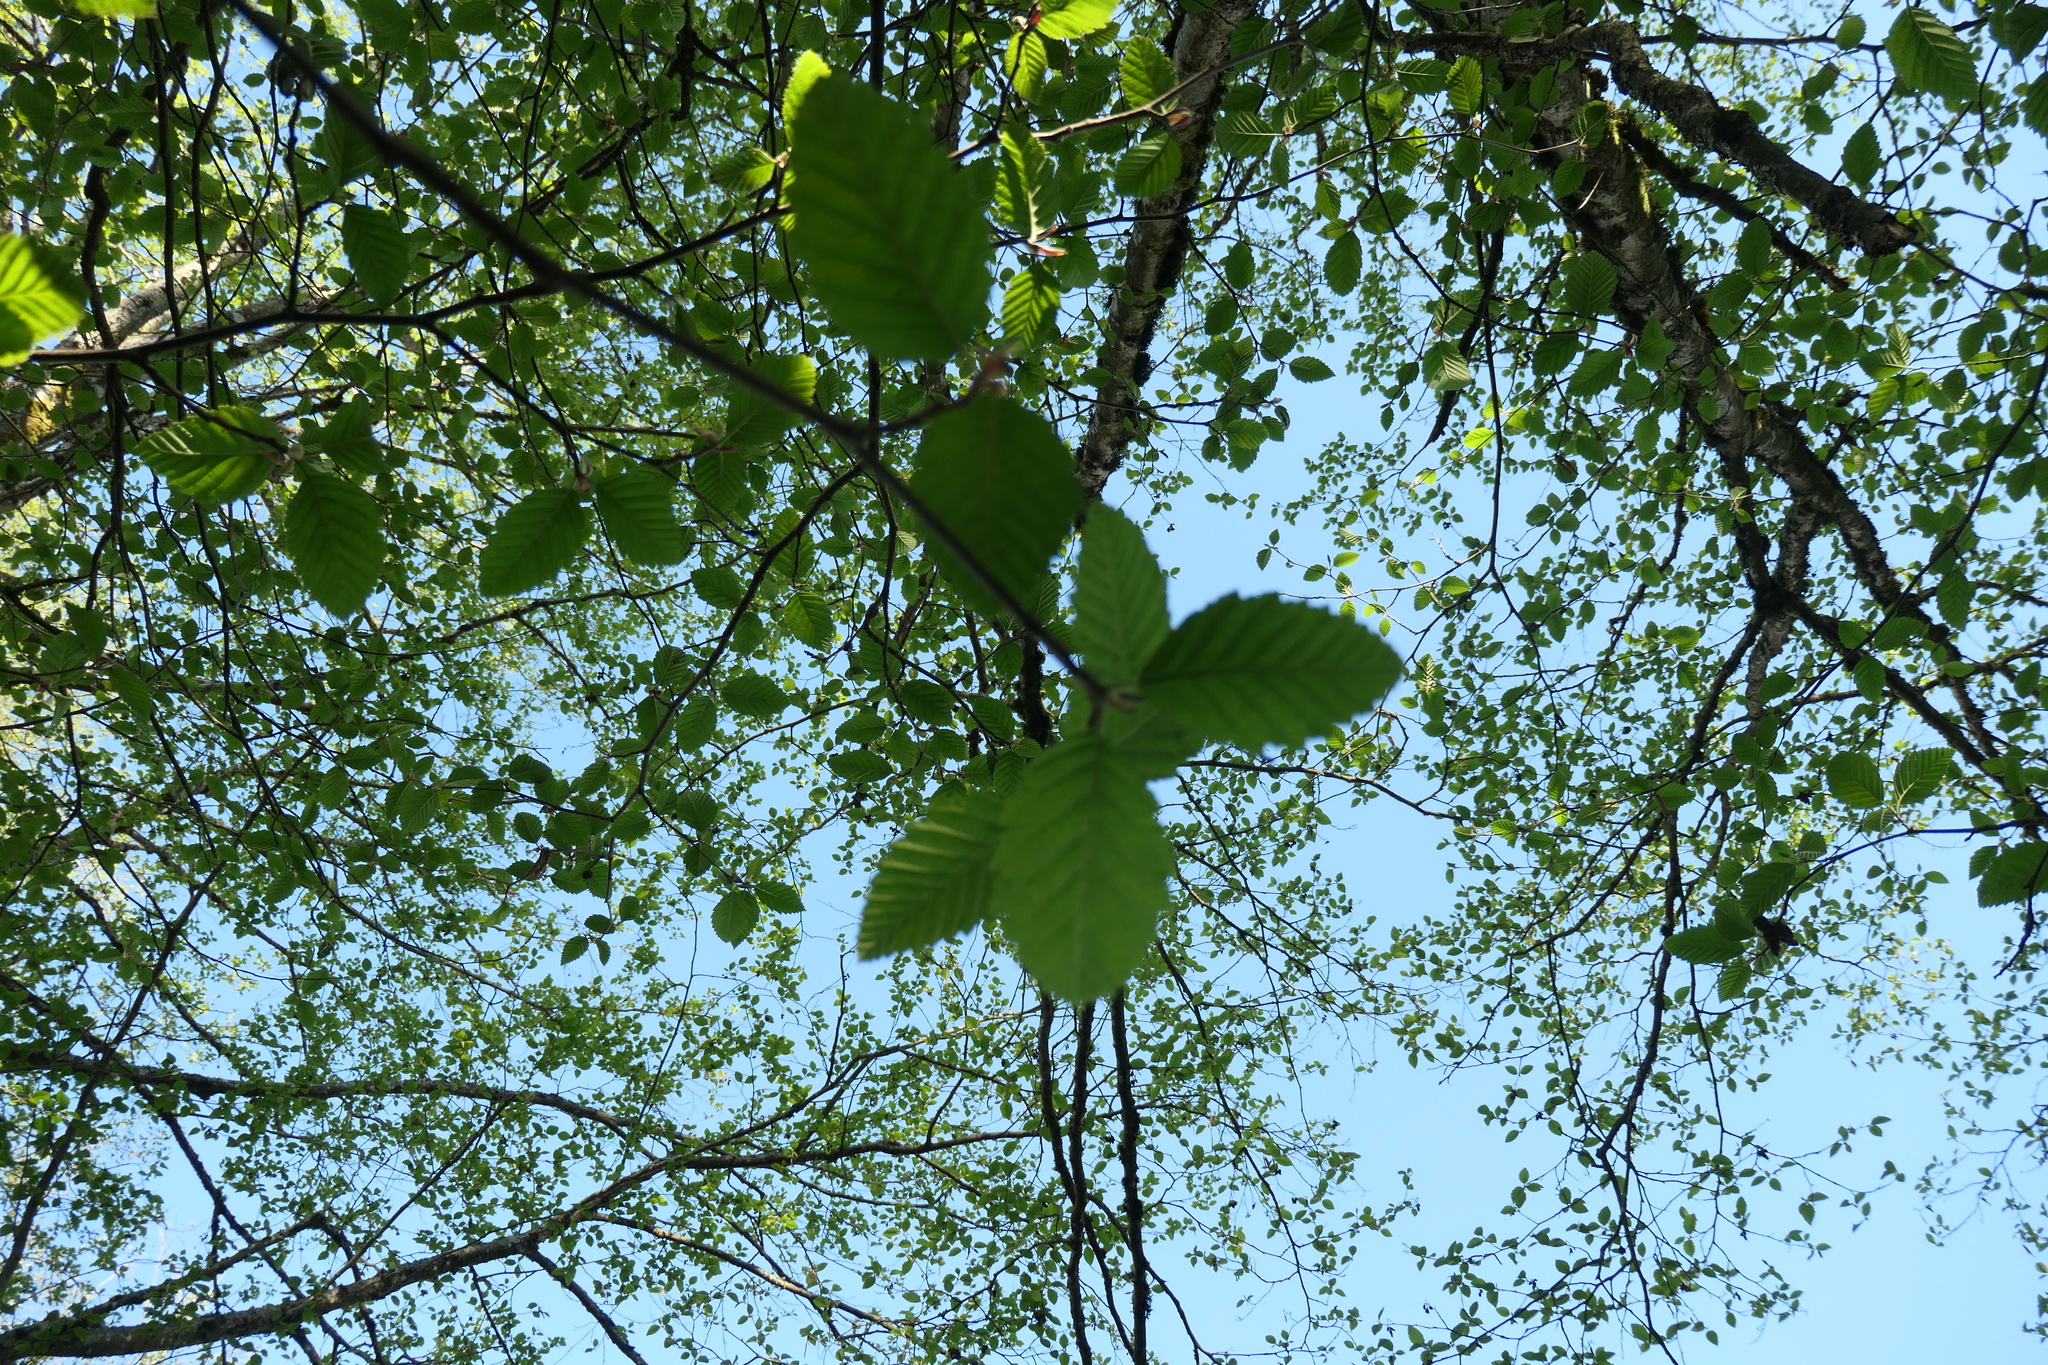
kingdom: Plantae
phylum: Tracheophyta
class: Magnoliopsida
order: Fagales
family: Betulaceae
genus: Alnus
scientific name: Alnus rubra
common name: Red alder
